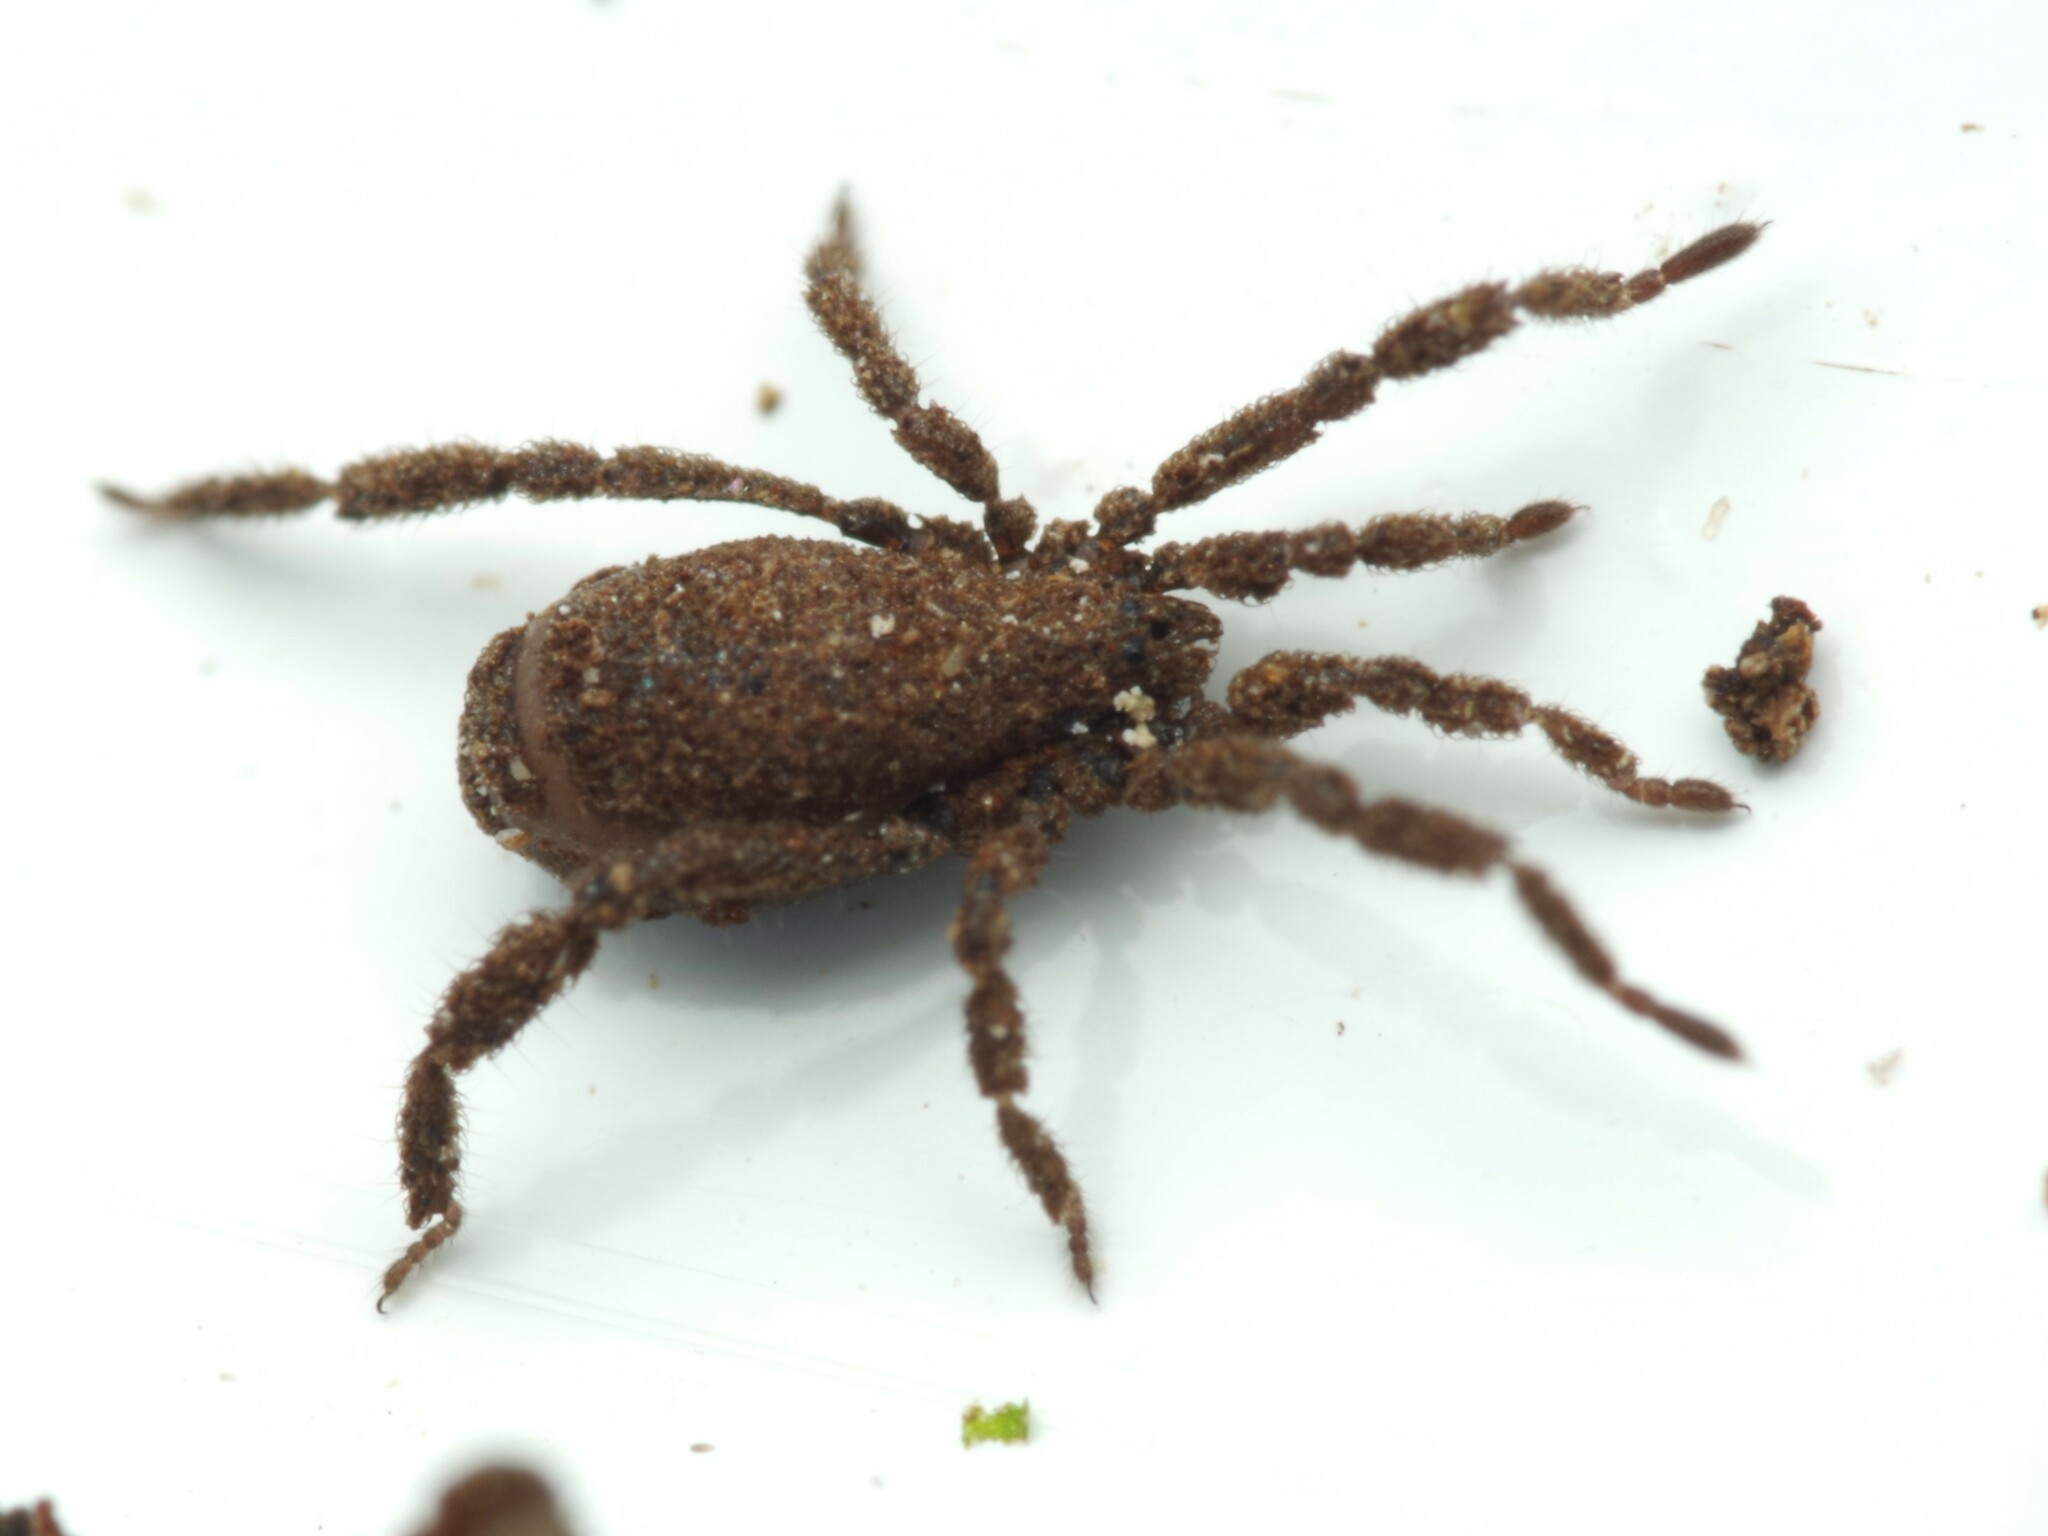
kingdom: Animalia
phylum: Arthropoda
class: Arachnida
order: Opiliones
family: Trogulidae
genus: Anelasmocephalus
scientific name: Anelasmocephalus cambridgei
